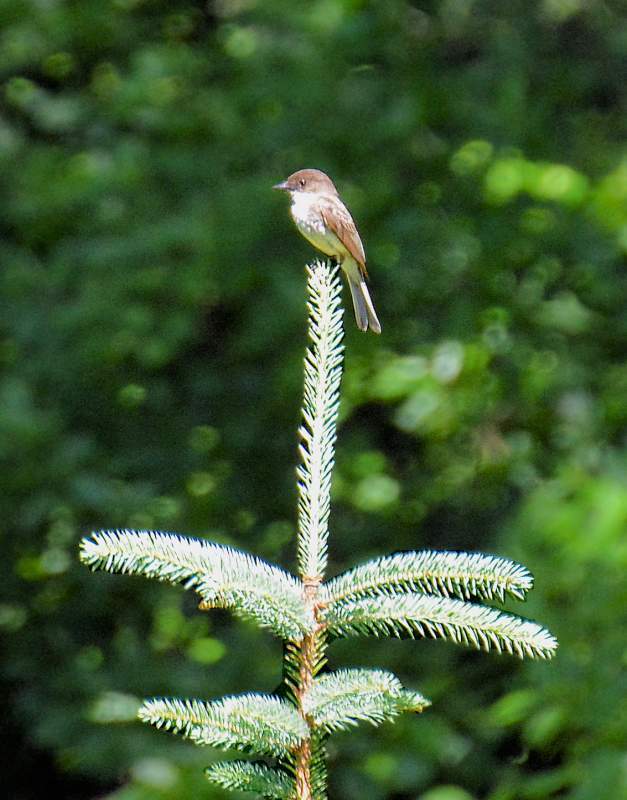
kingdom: Animalia
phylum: Chordata
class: Aves
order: Passeriformes
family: Tyrannidae
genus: Sayornis
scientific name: Sayornis phoebe
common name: Eastern phoebe
